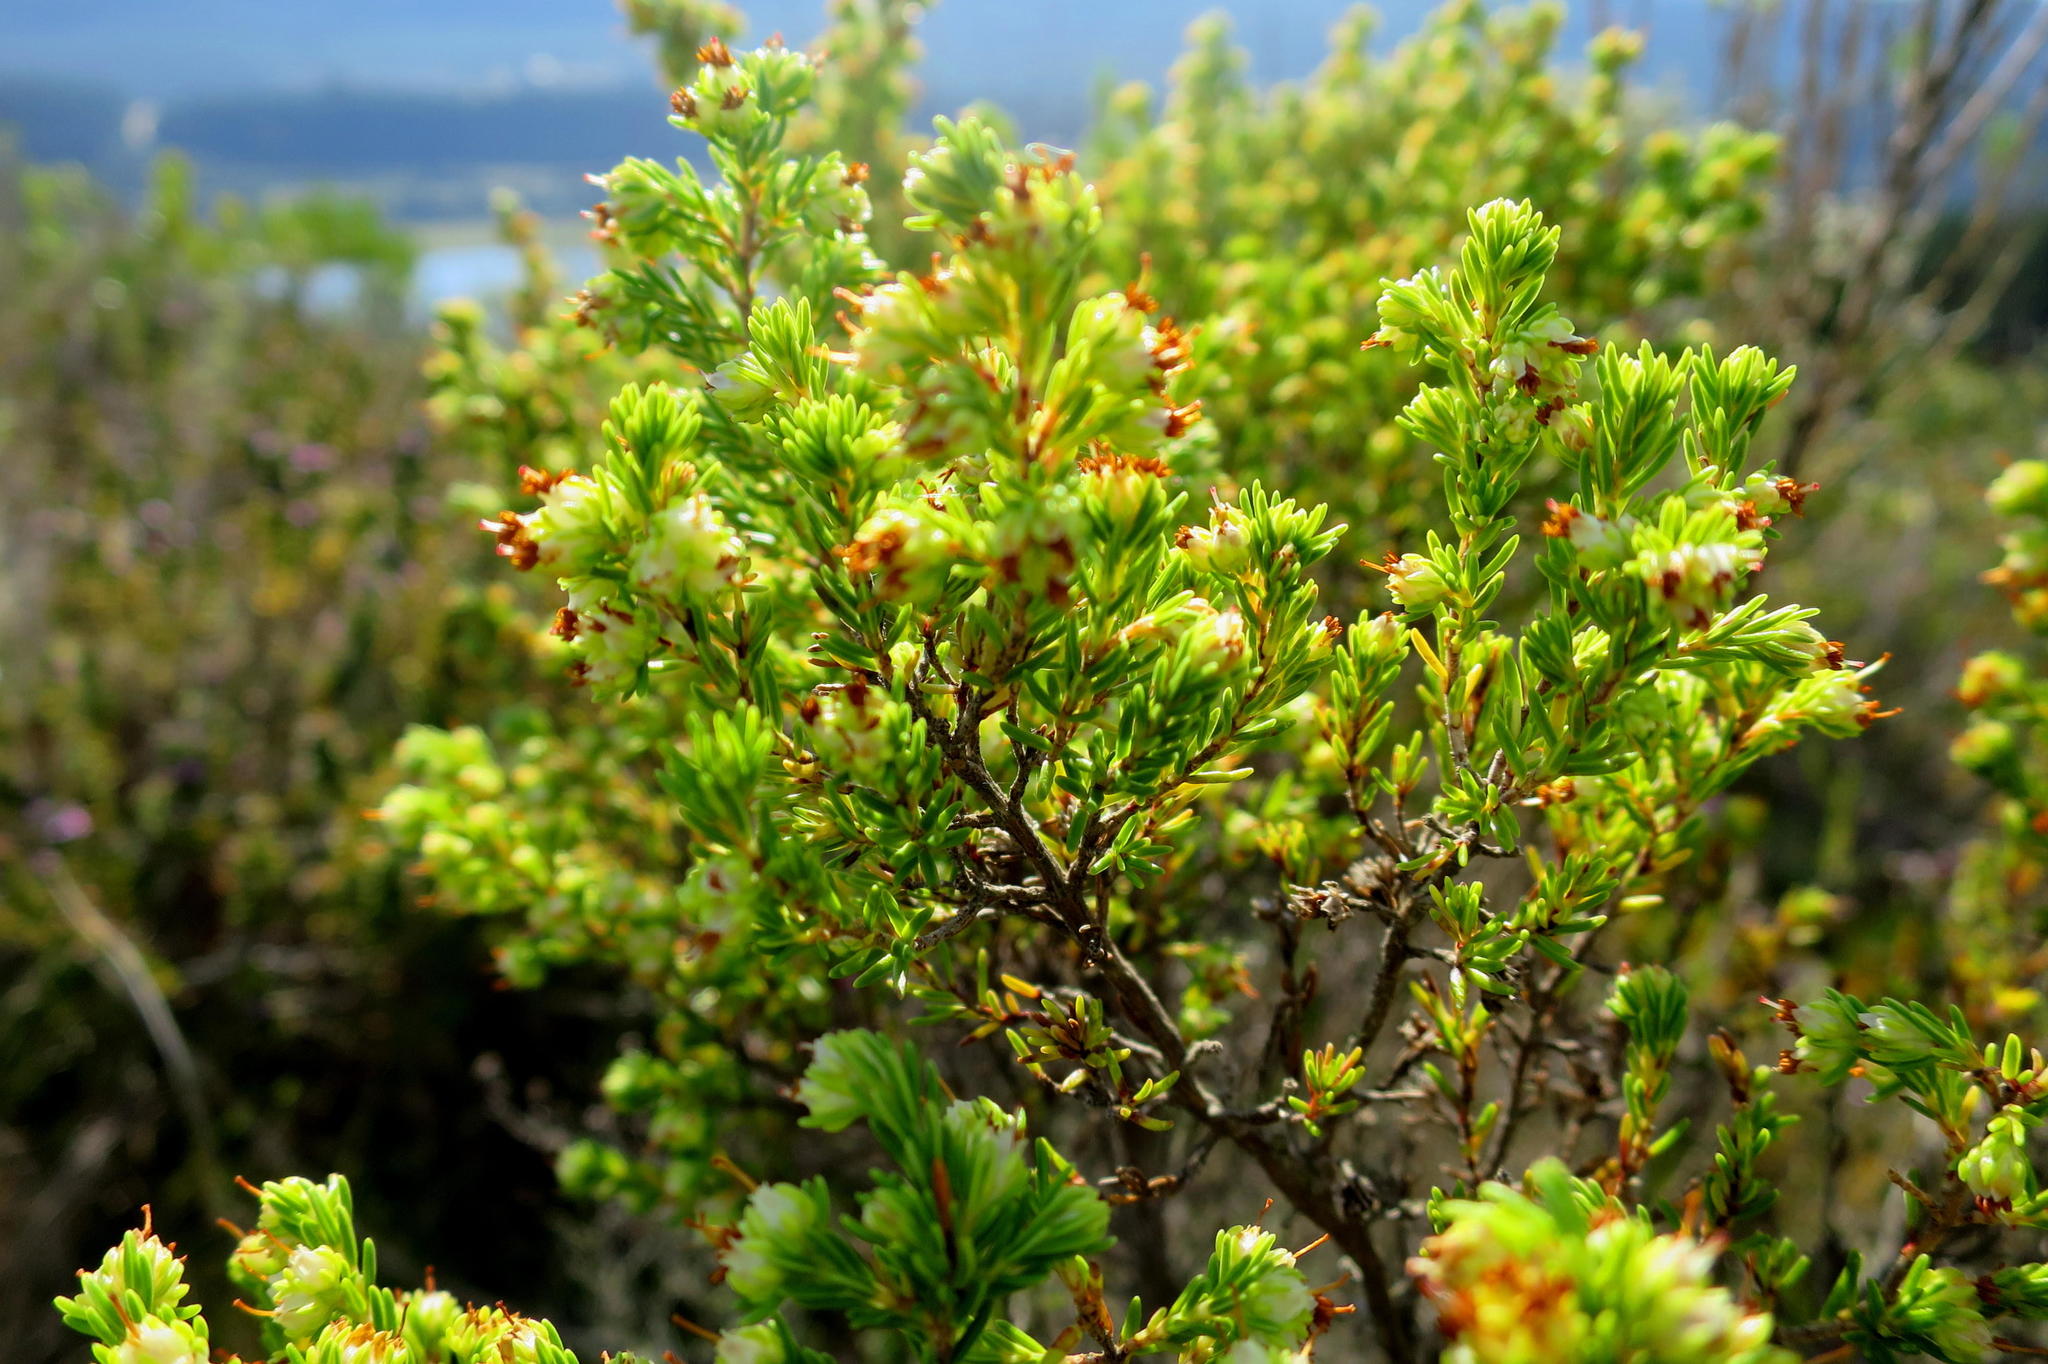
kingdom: Plantae
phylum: Tracheophyta
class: Magnoliopsida
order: Ericales
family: Ericaceae
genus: Erica
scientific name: Erica glumiflora
